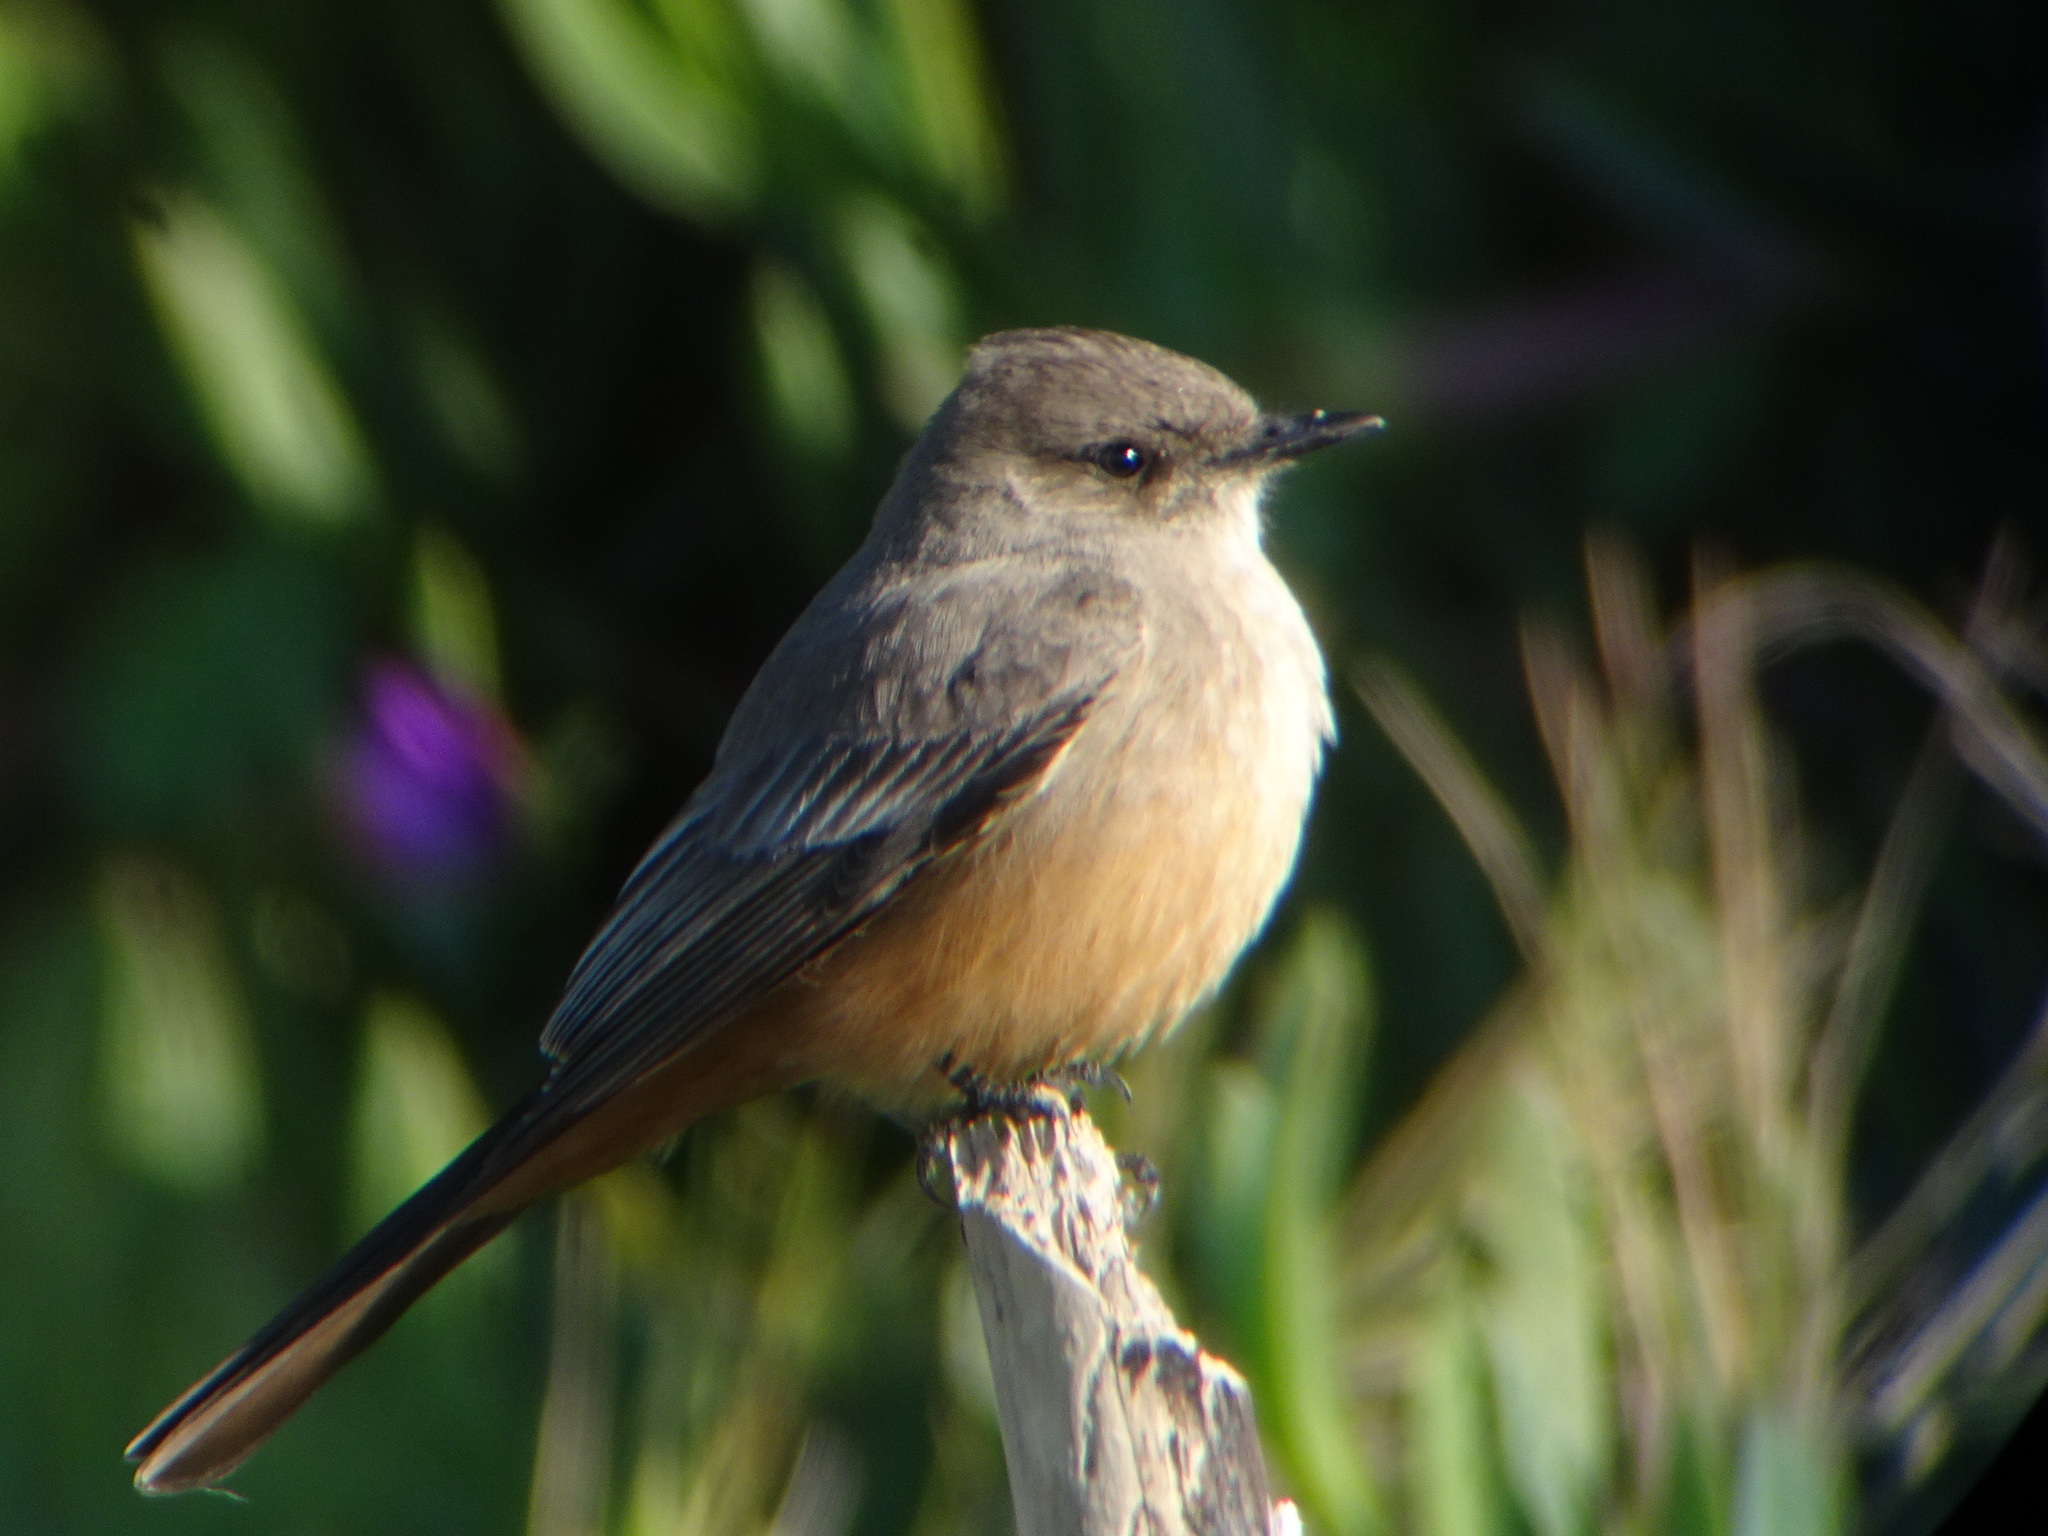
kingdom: Animalia
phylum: Chordata
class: Aves
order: Passeriformes
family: Tyrannidae
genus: Sayornis
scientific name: Sayornis saya
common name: Say's phoebe
